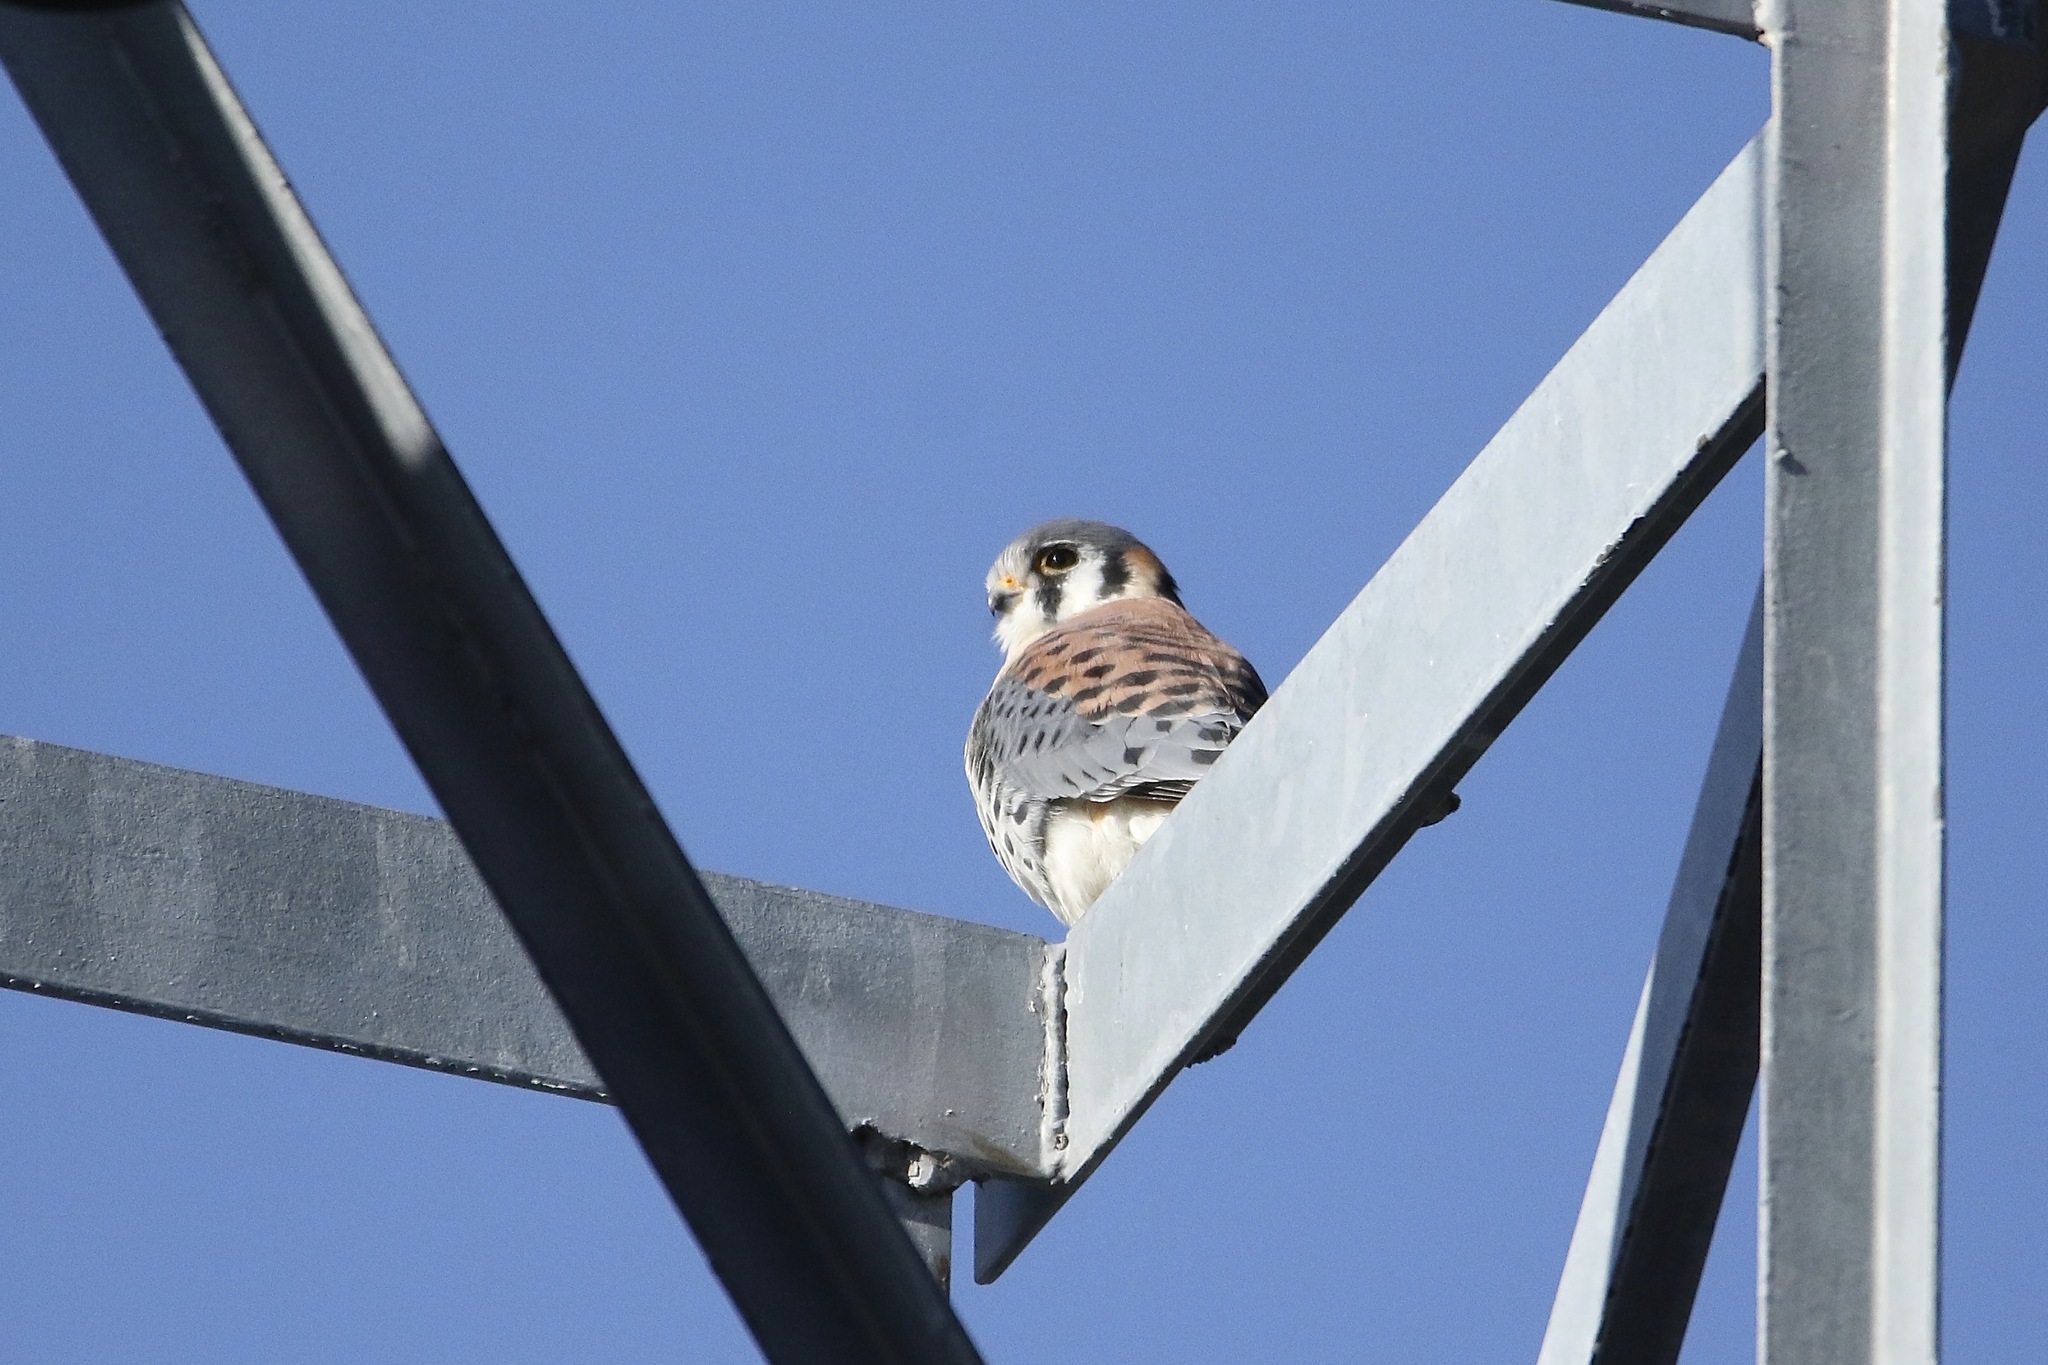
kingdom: Animalia
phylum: Chordata
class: Aves
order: Falconiformes
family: Falconidae
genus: Falco
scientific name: Falco sparverius
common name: American kestrel
